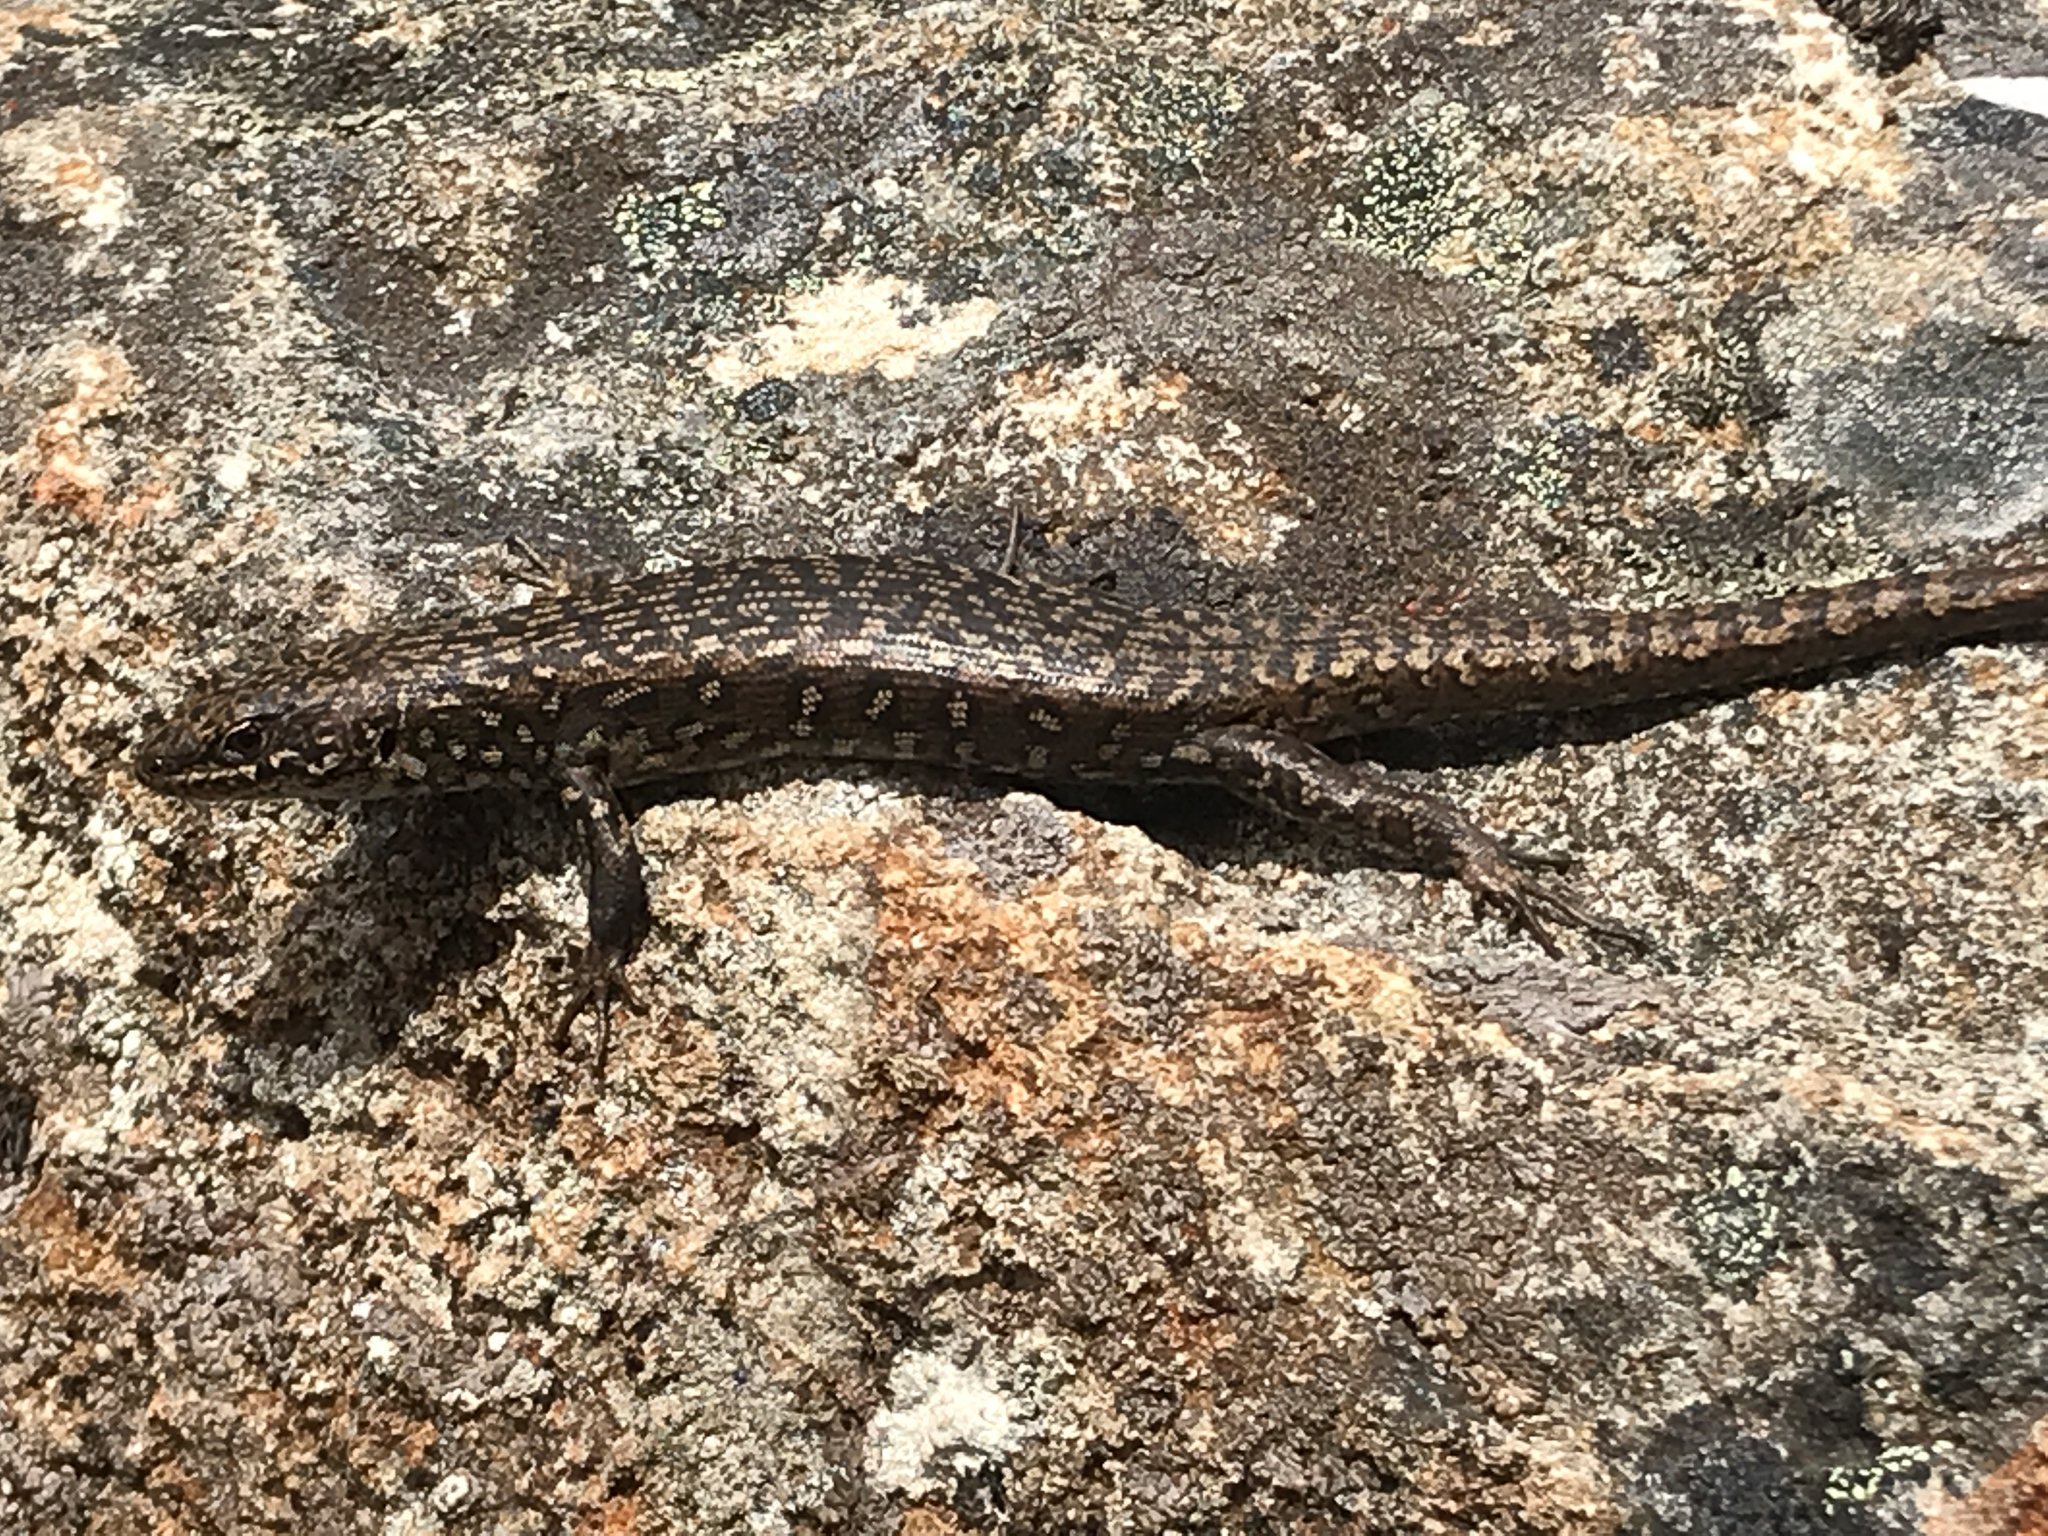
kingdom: Animalia
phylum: Chordata
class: Squamata
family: Scincidae
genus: Carinascincus
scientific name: Carinascincus ocellatus
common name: Ocellated cool-skink
